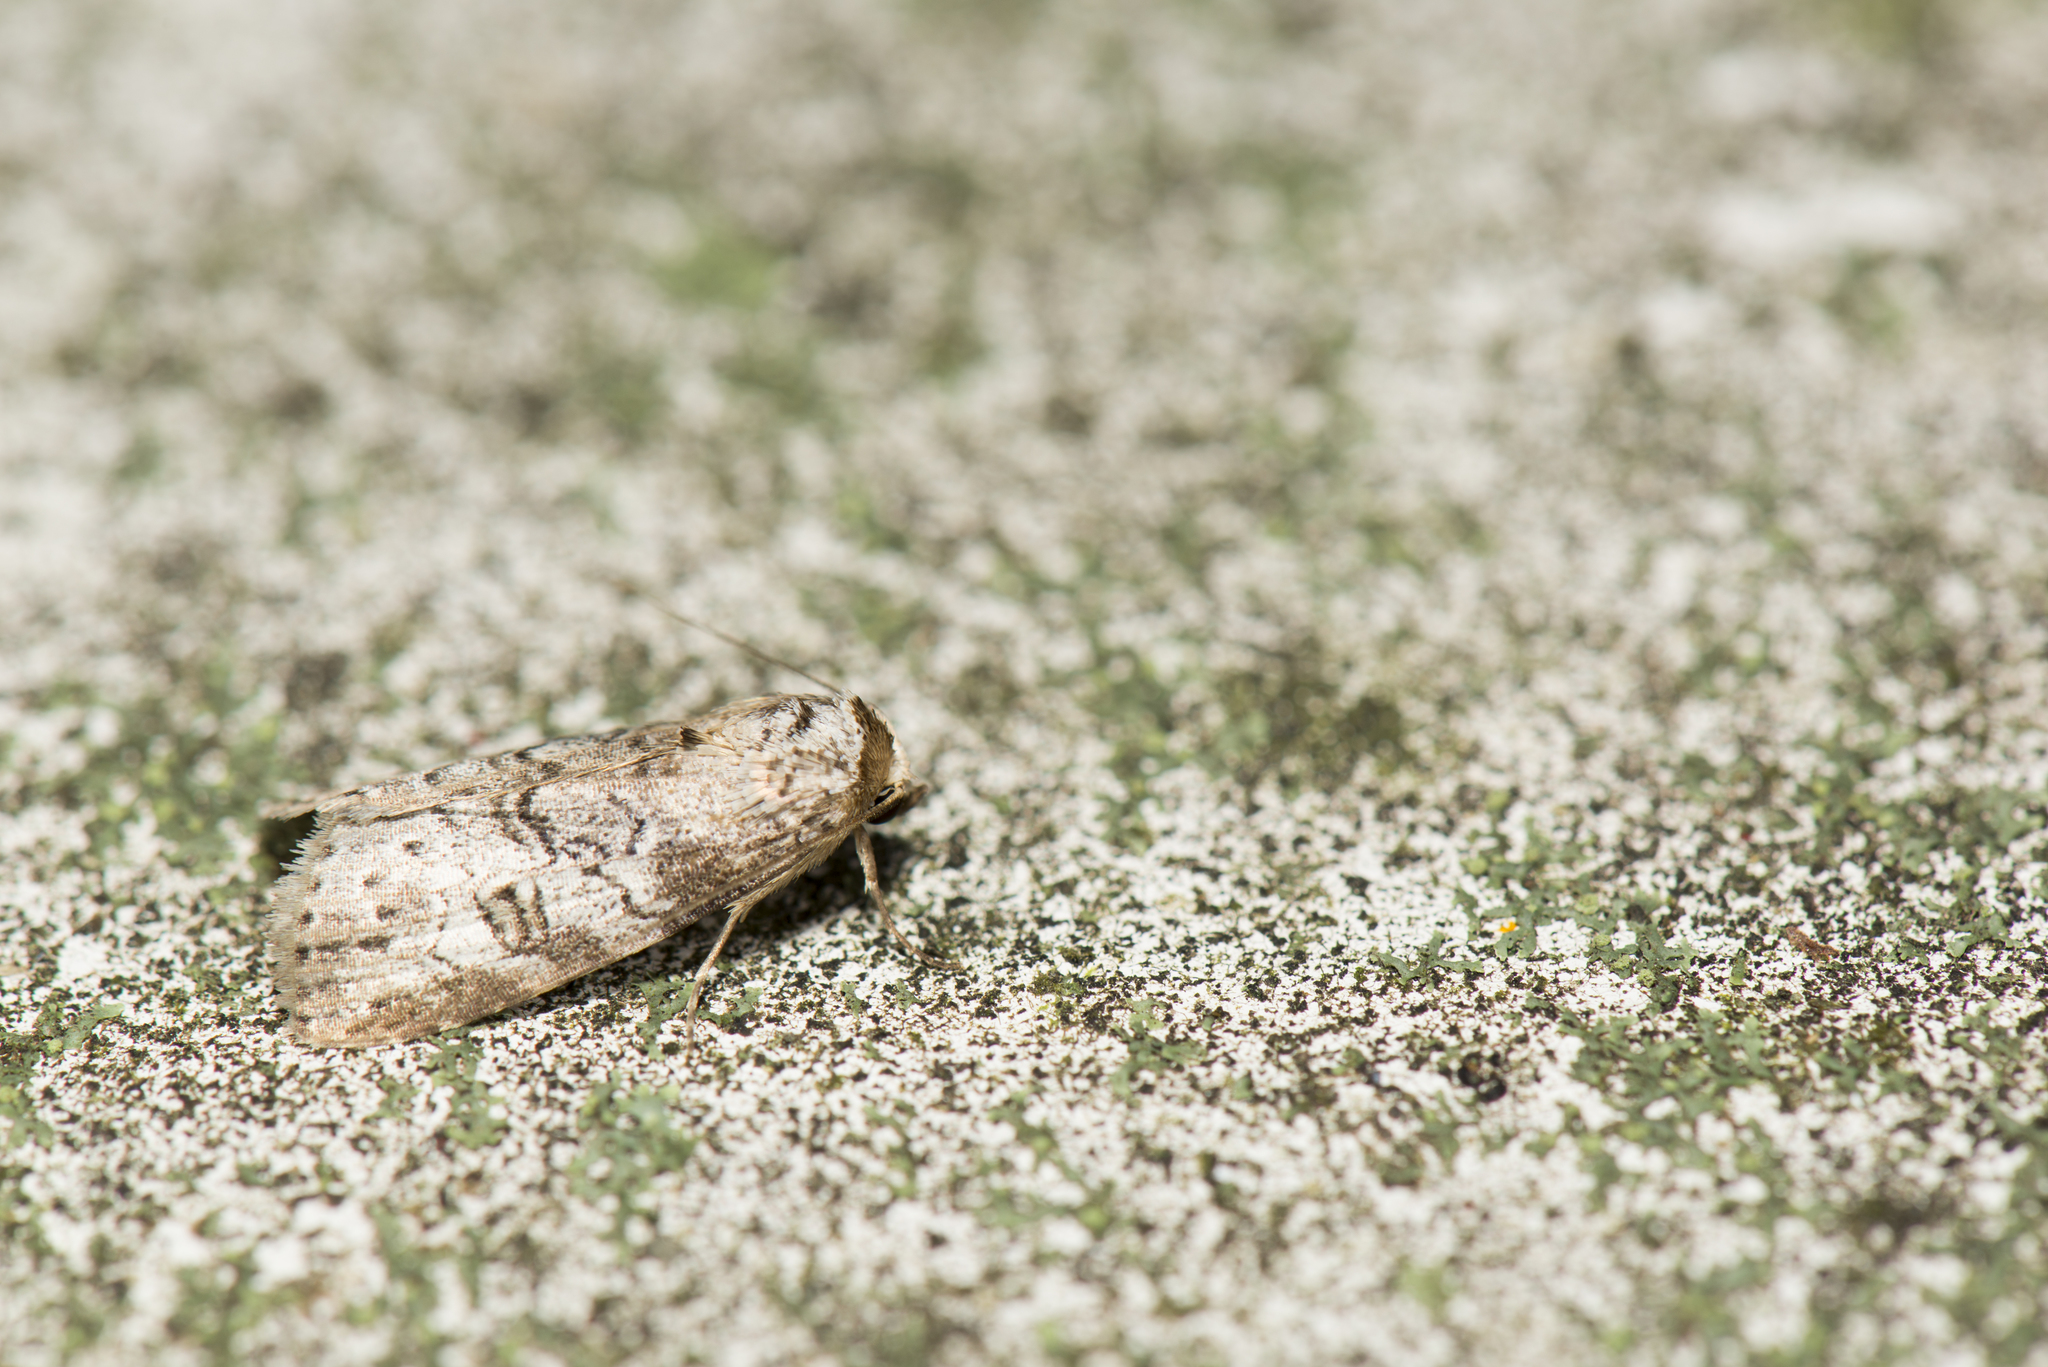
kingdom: Animalia
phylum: Arthropoda
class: Insecta
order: Lepidoptera
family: Erebidae
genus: Chorsia
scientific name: Chorsia mollicula
